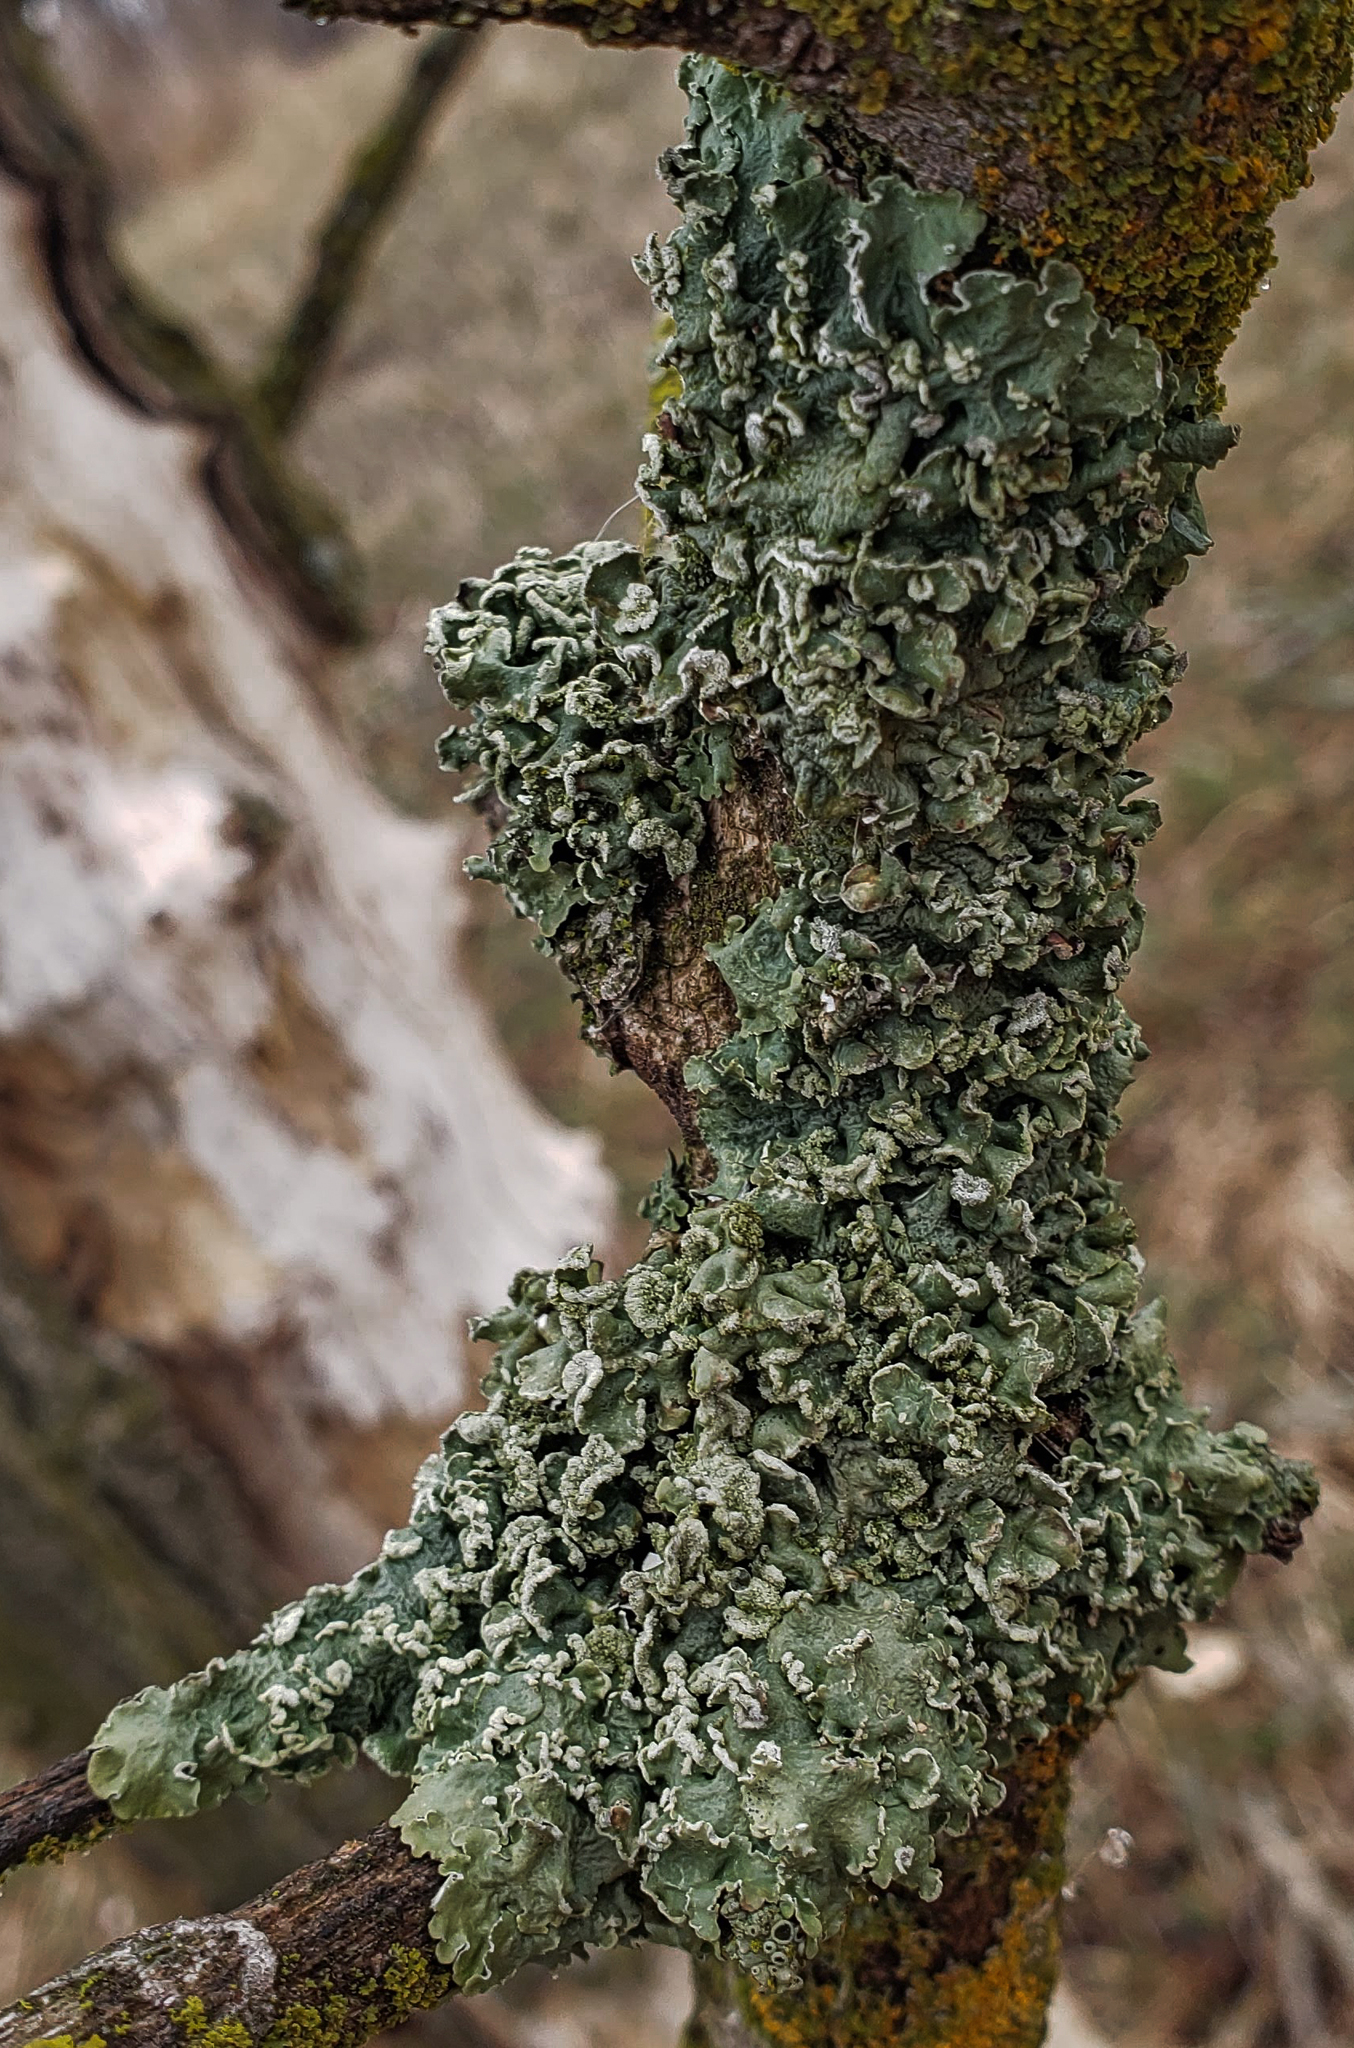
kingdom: Fungi
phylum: Ascomycota
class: Lecanoromycetes
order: Lecanorales
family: Parmeliaceae
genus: Flavopunctelia
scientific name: Flavopunctelia soredica
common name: Powder-edged speckled greenshield
